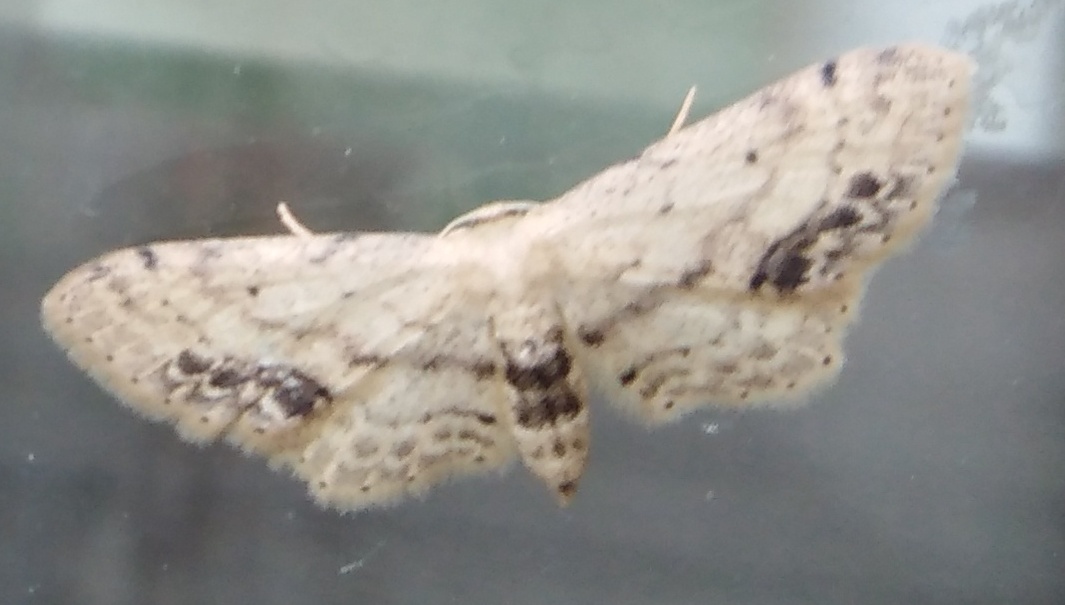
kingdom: Animalia
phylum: Arthropoda
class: Insecta
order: Lepidoptera
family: Geometridae
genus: Idaea
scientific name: Idaea dimidiata
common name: Single-dotted wave
